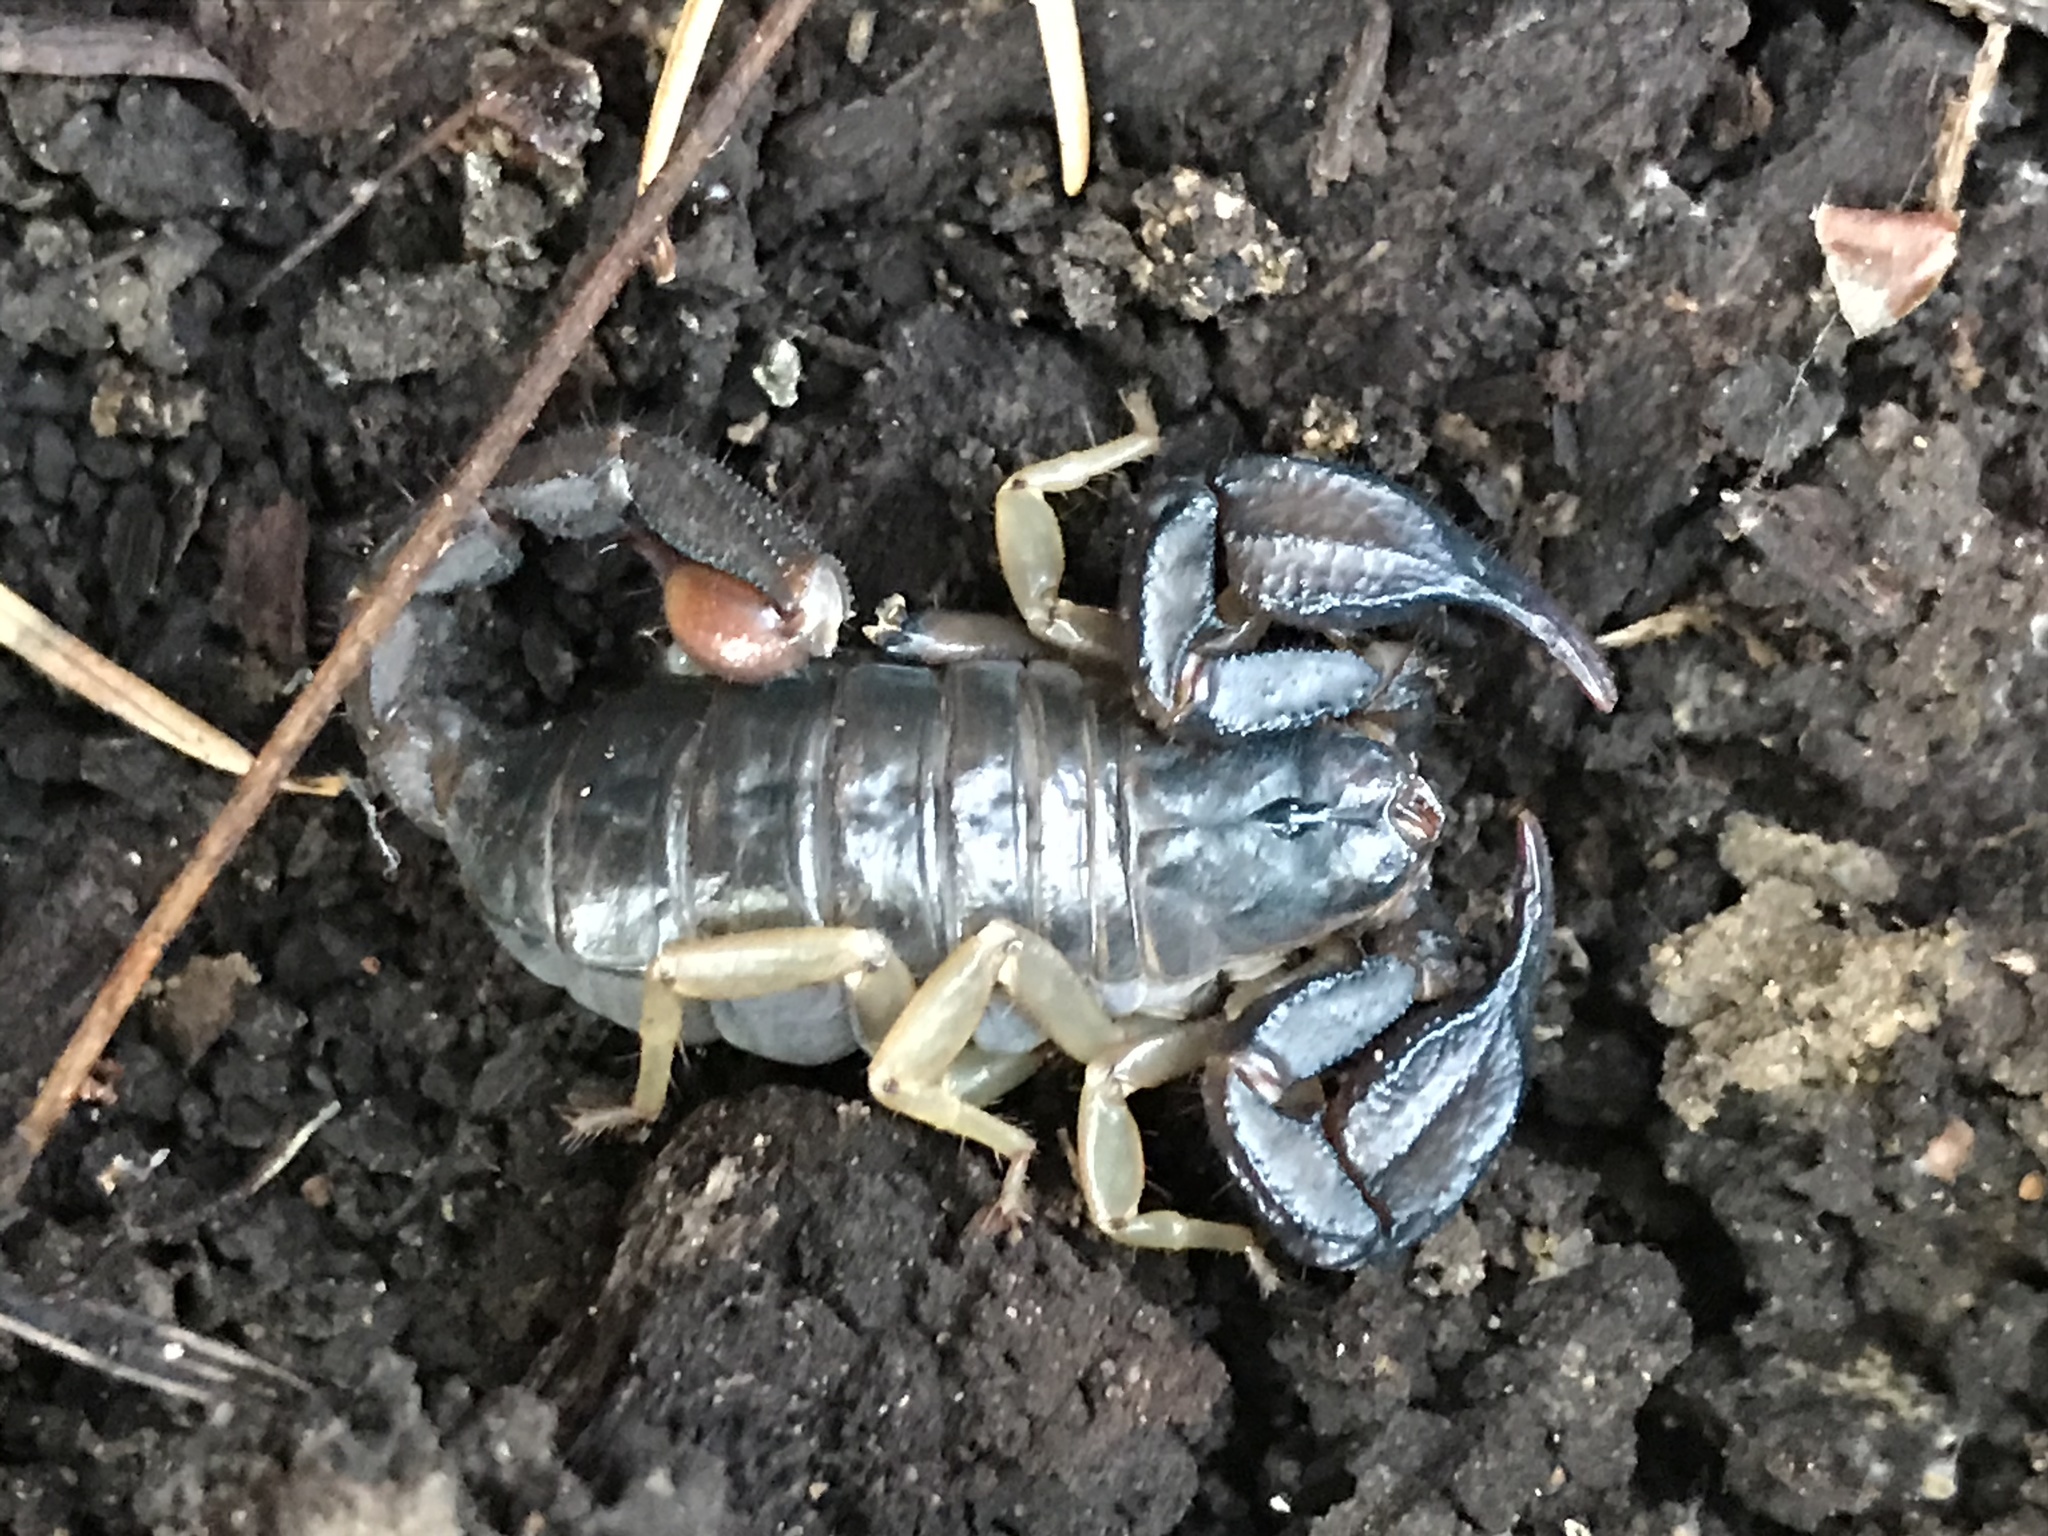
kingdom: Animalia
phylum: Arthropoda
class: Arachnida
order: Scorpiones
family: Chactidae
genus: Uroctonus
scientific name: Uroctonus mordax
